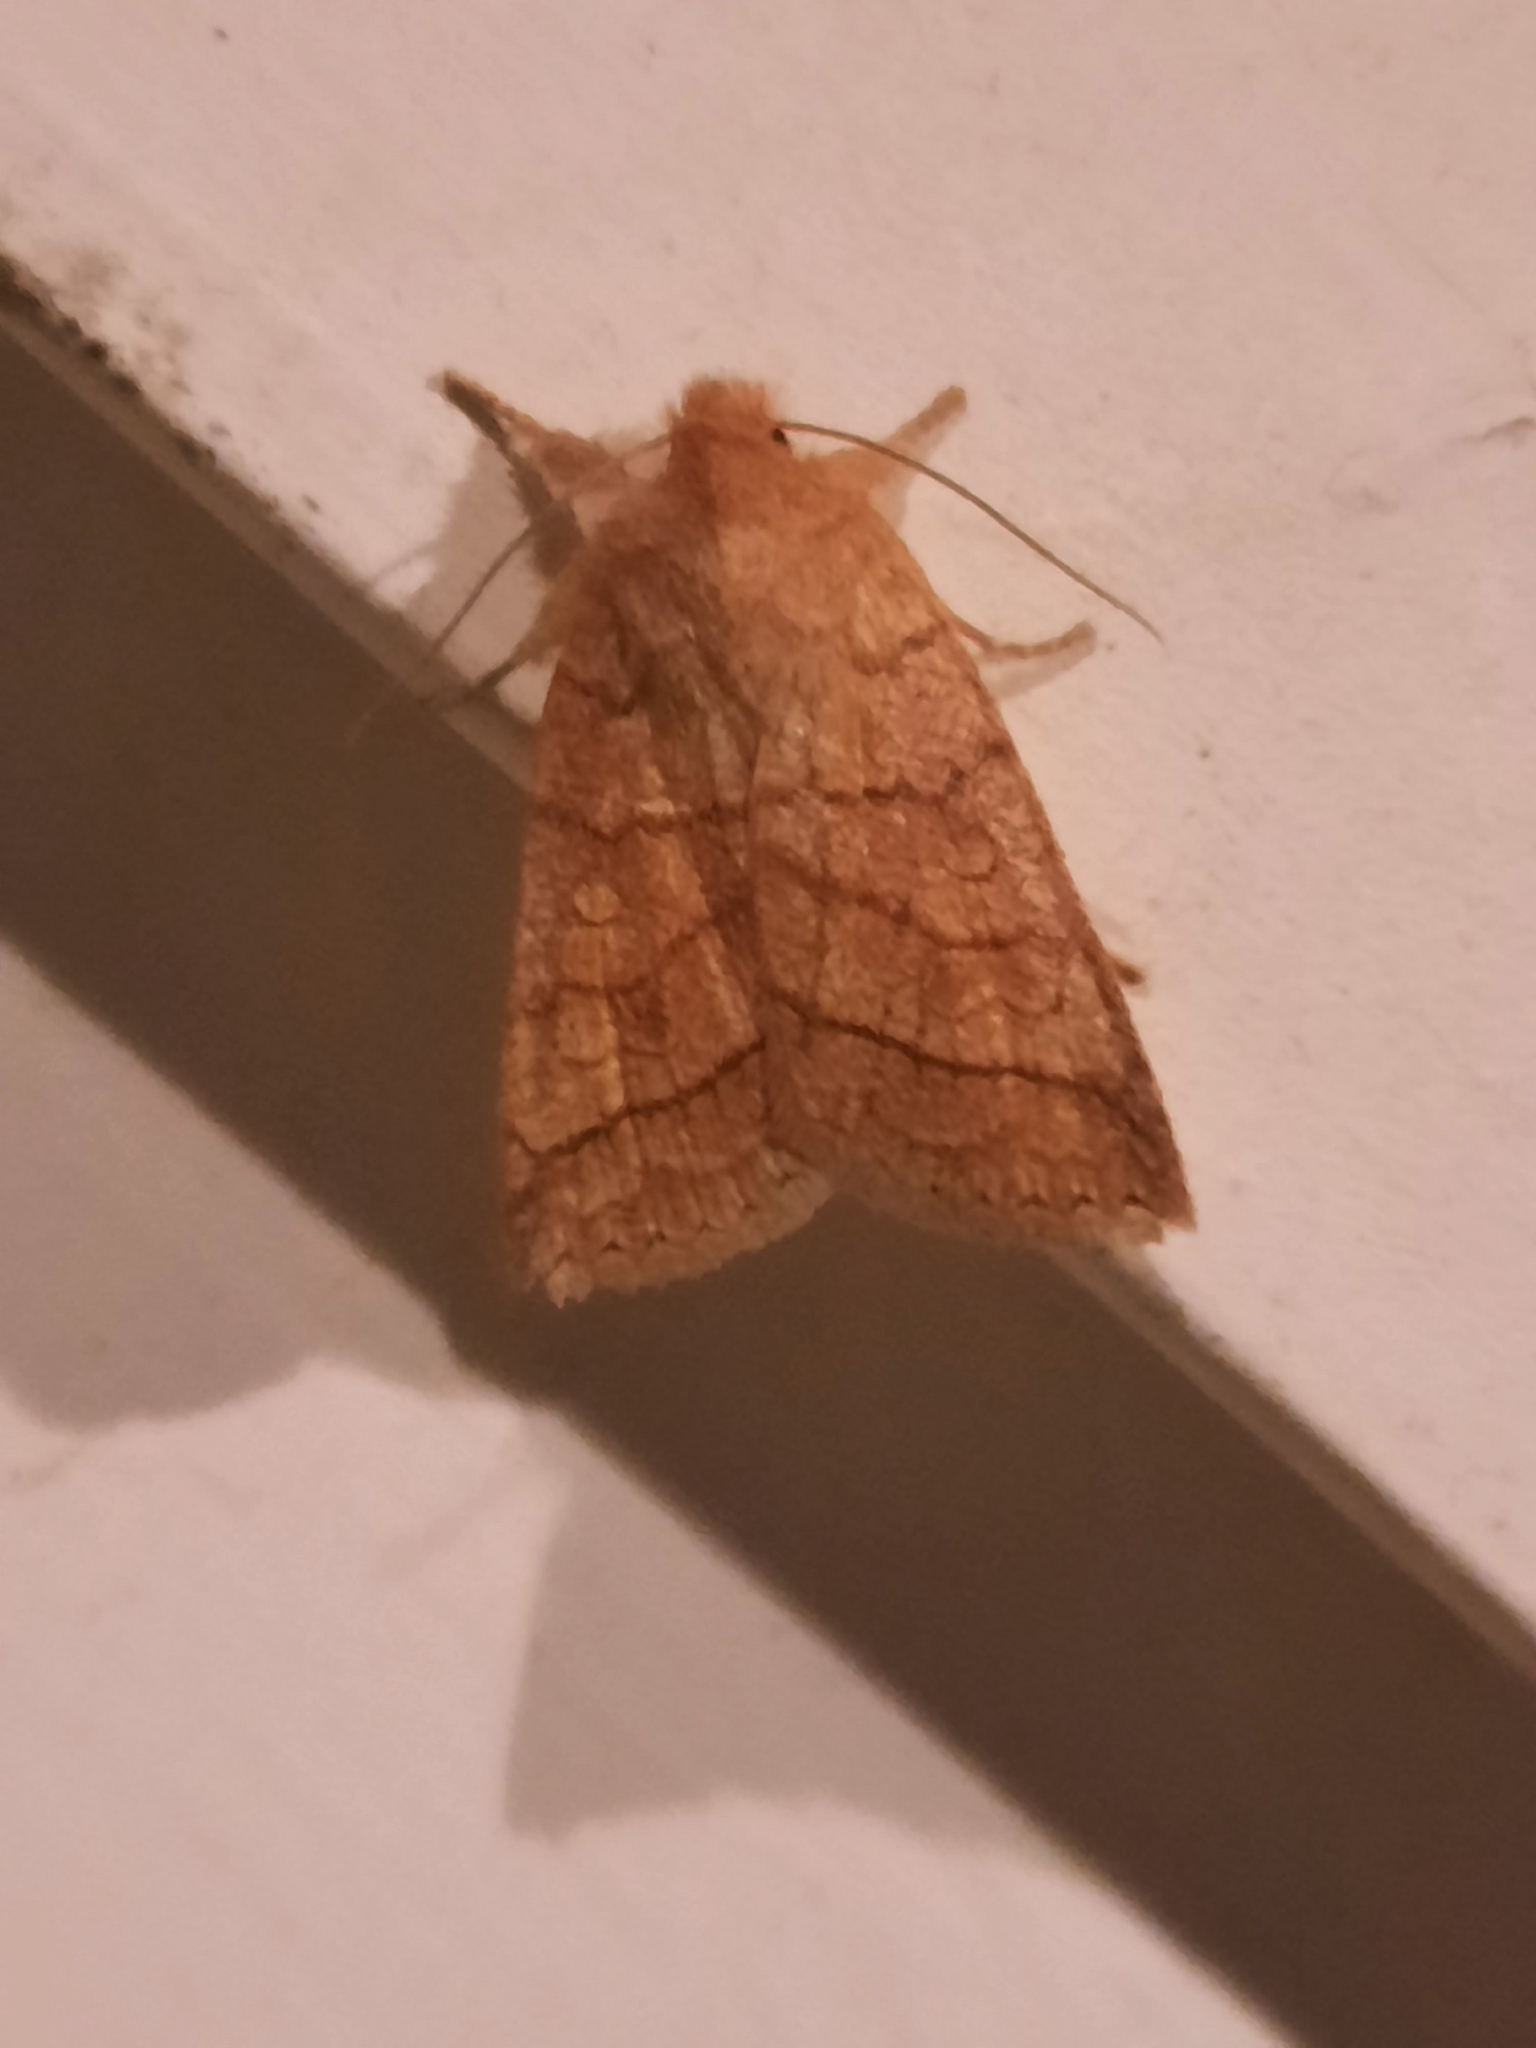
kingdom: Animalia
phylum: Arthropoda
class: Insecta
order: Lepidoptera
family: Noctuidae
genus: Pyreferra
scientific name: Pyreferra hesperidago
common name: Mustard sallow
